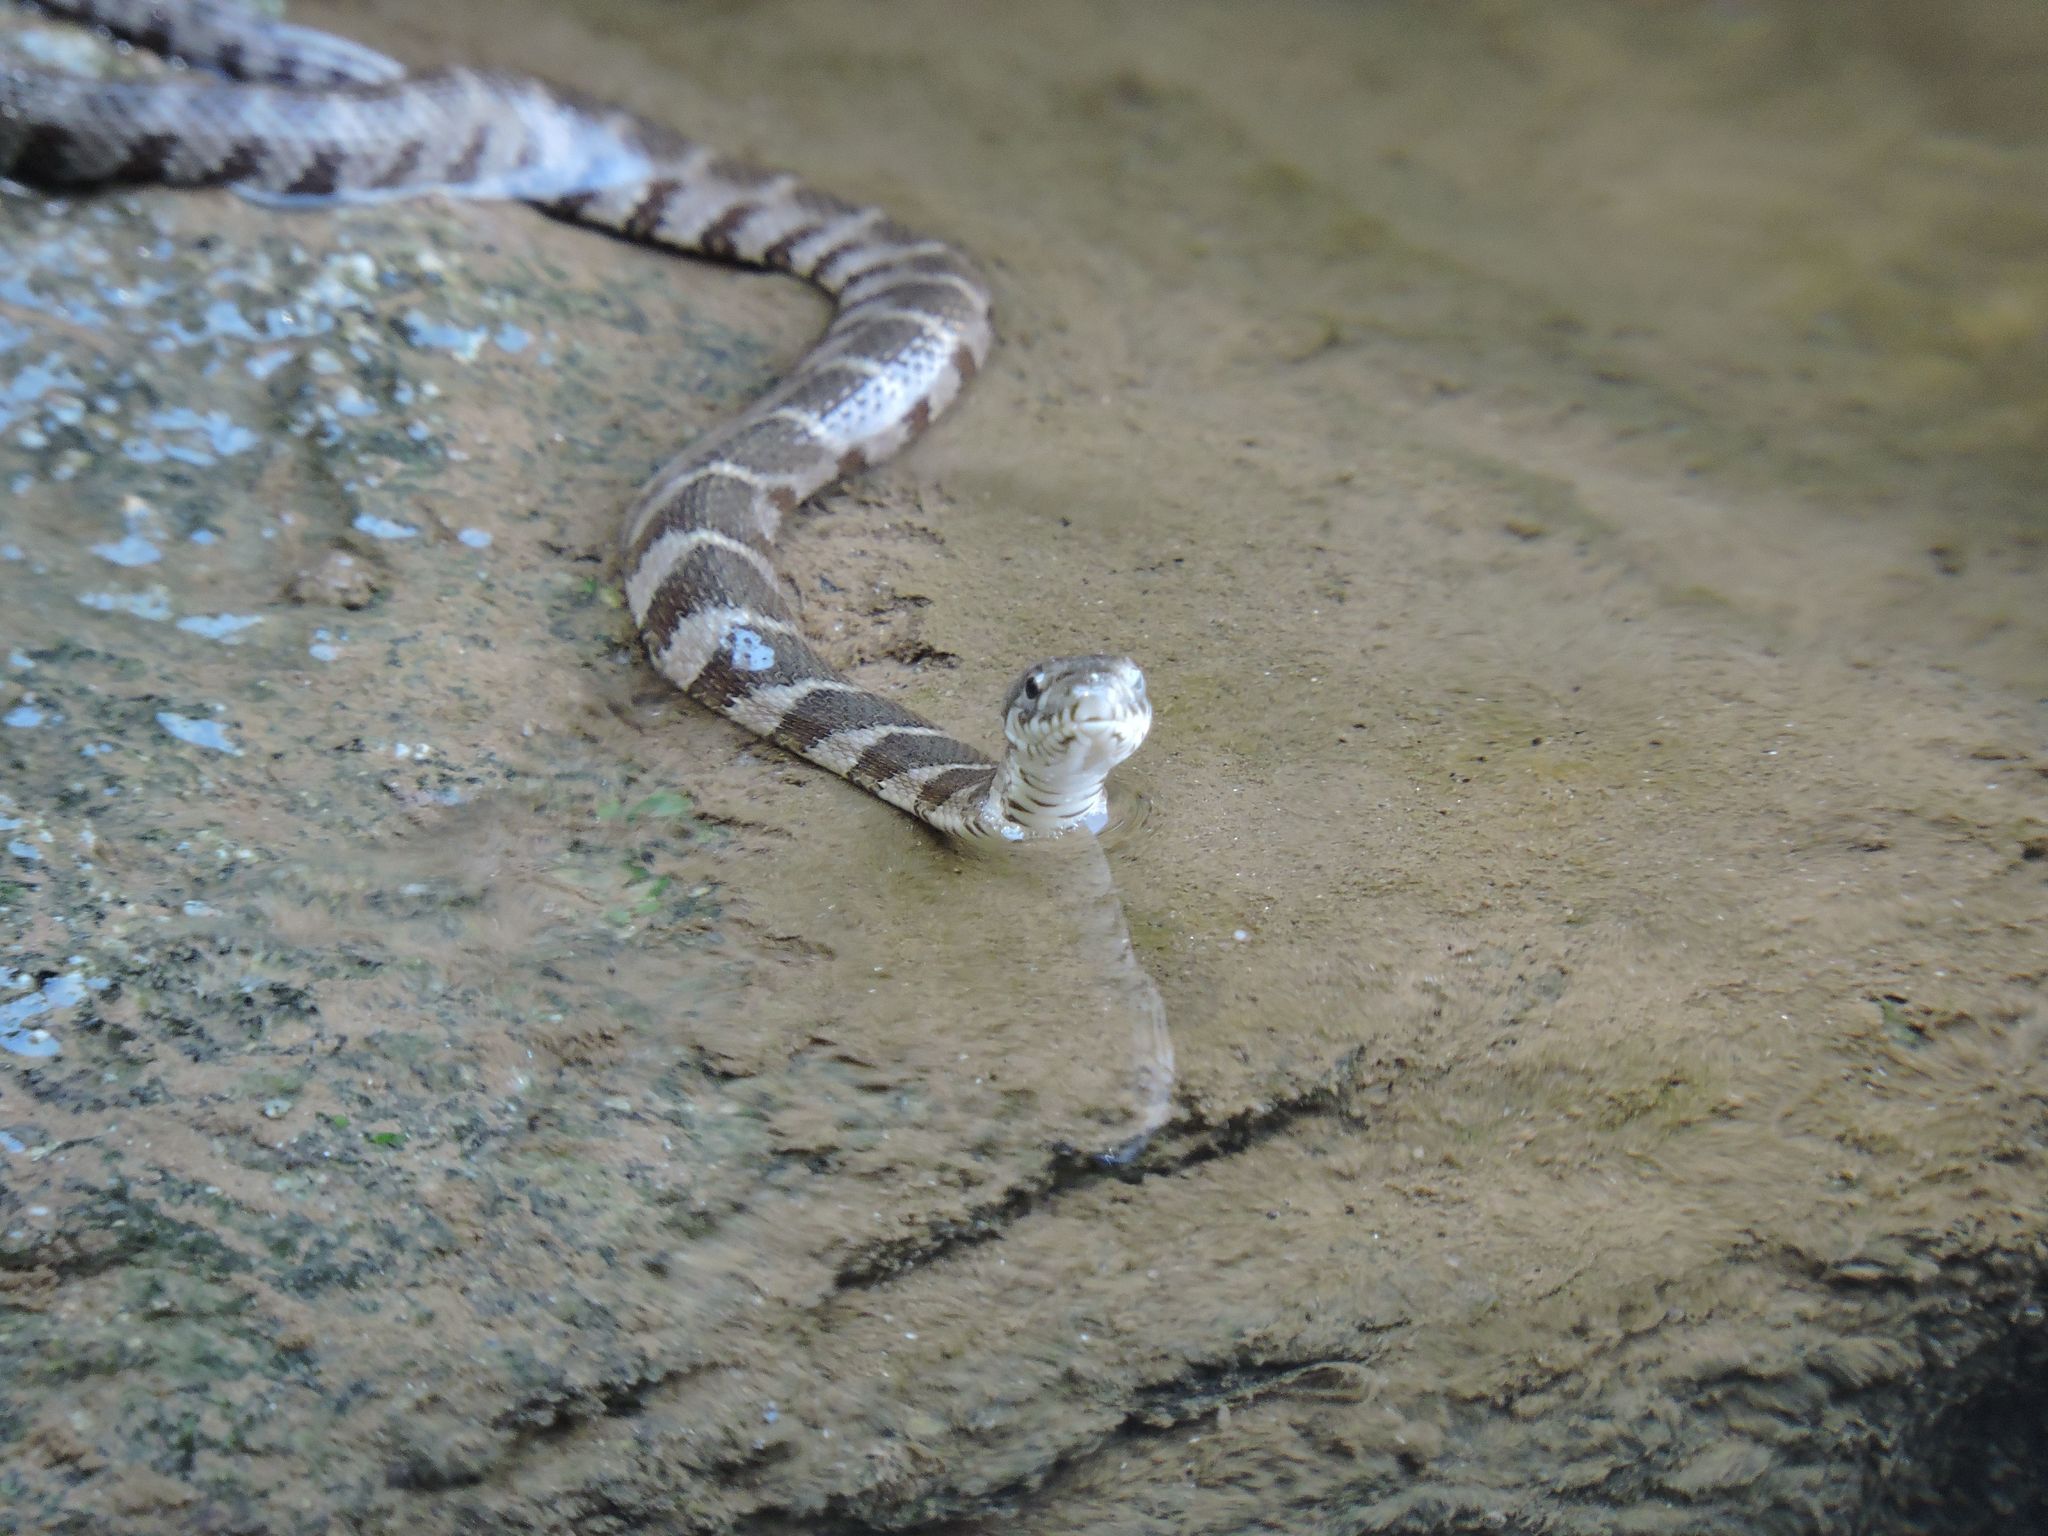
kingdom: Animalia
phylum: Chordata
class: Squamata
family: Colubridae
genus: Nerodia
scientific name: Nerodia sipedon
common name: Northern water snake
